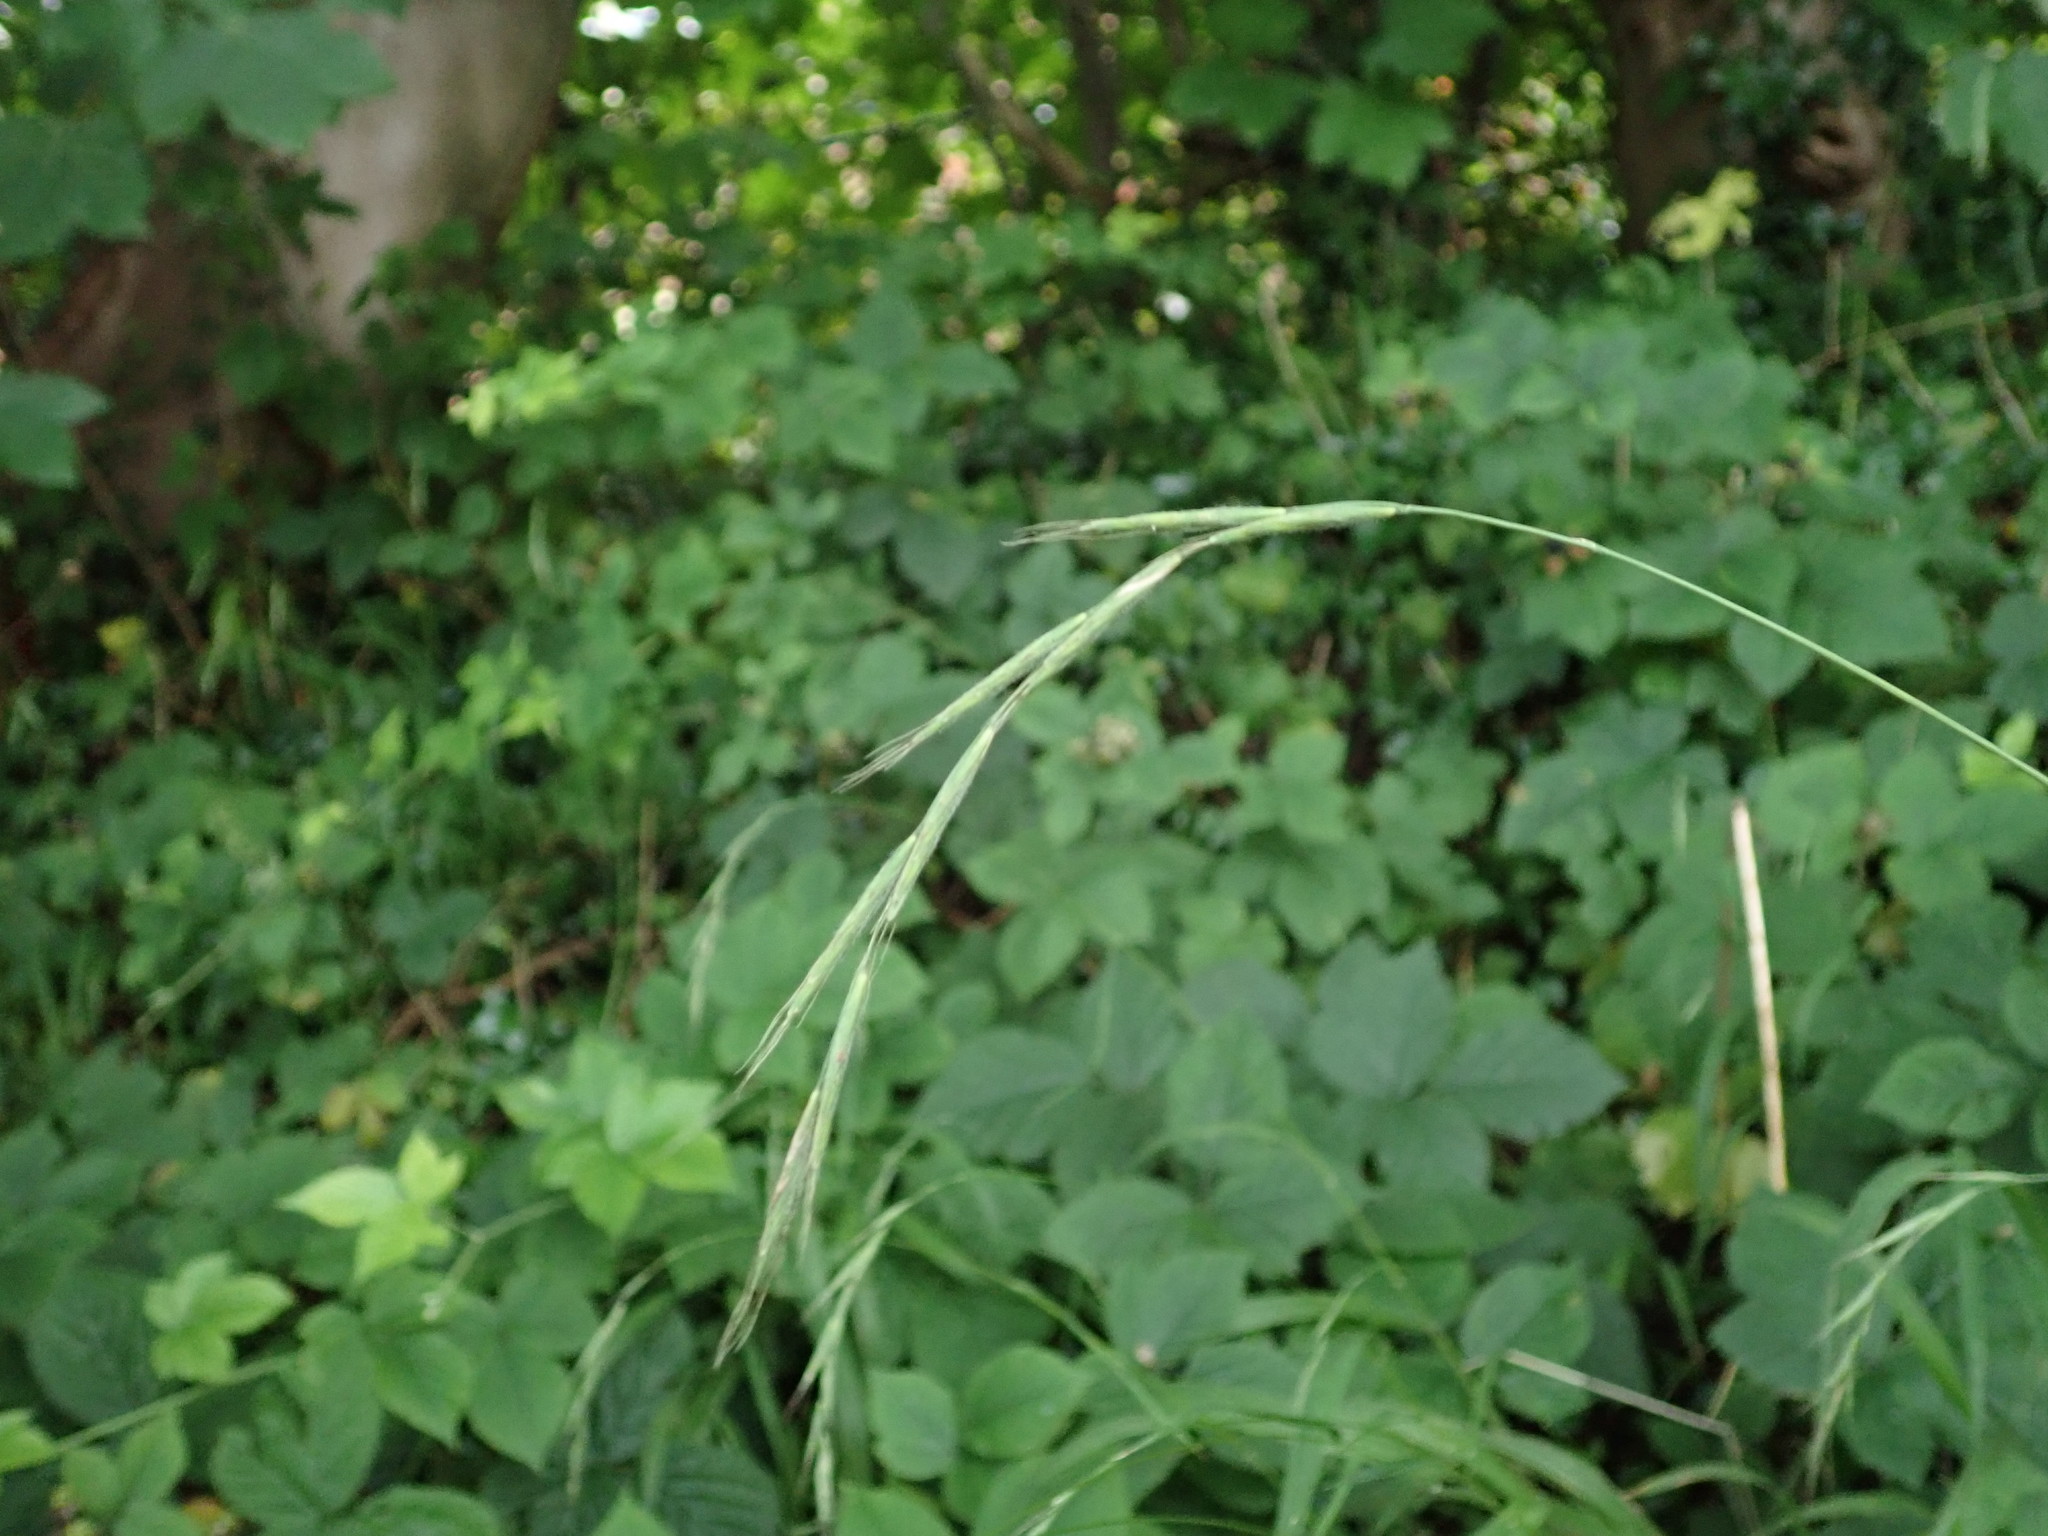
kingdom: Plantae
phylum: Tracheophyta
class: Liliopsida
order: Poales
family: Poaceae
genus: Brachypodium
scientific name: Brachypodium sylvaticum
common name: False-brome
